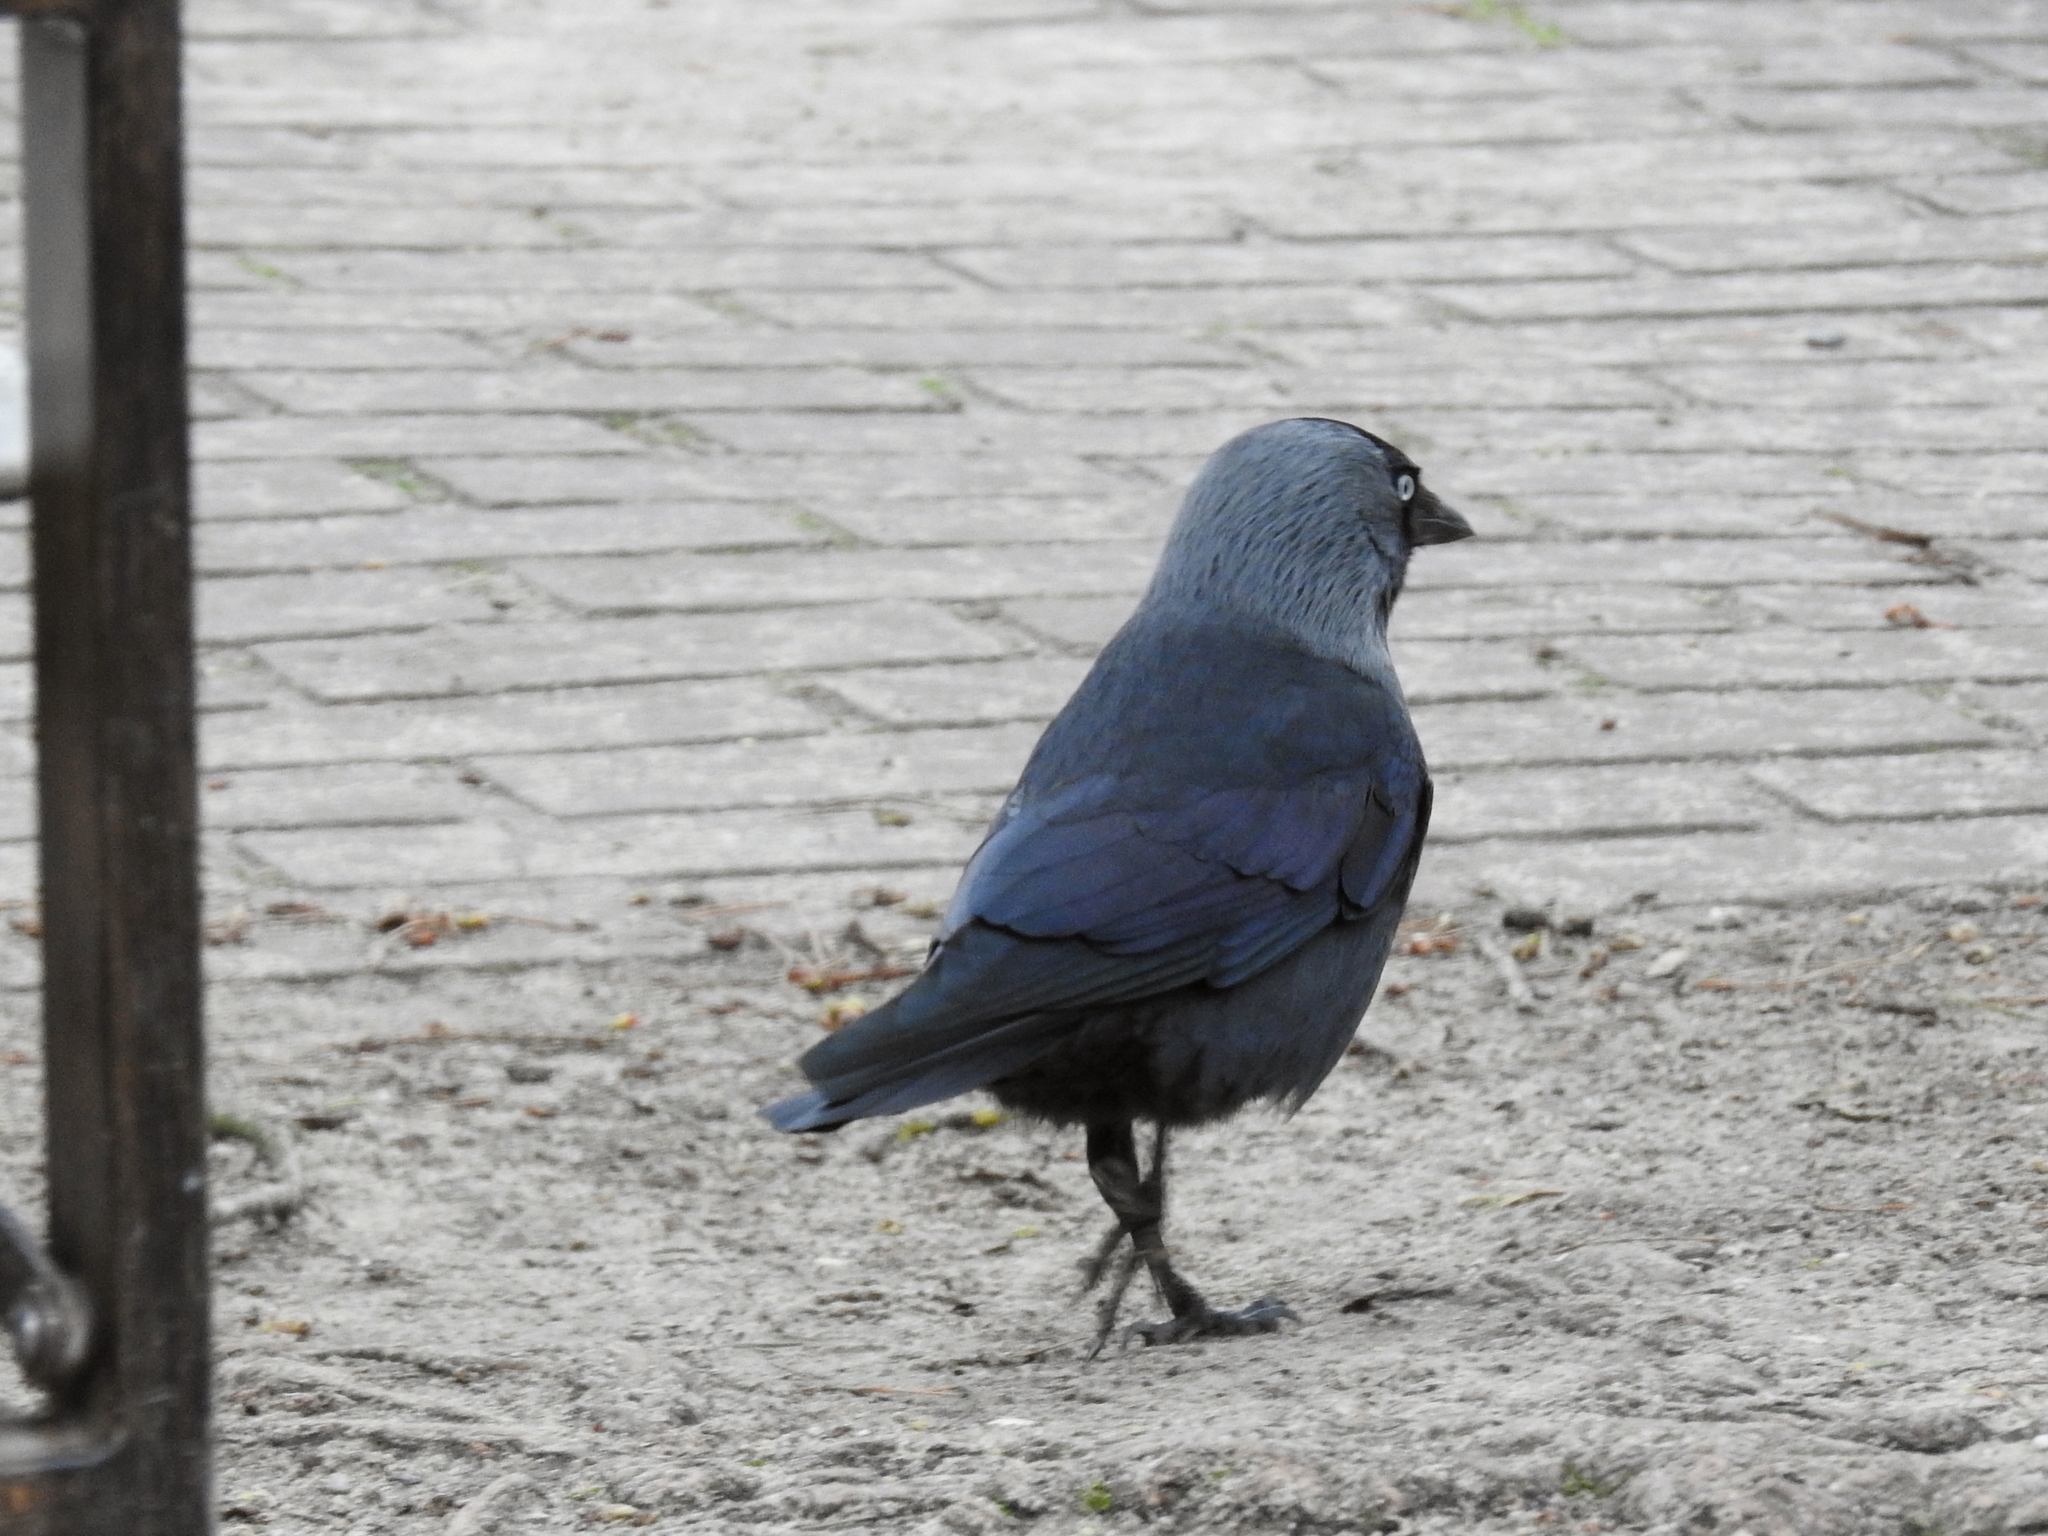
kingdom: Animalia
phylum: Chordata
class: Aves
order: Passeriformes
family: Corvidae
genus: Coloeus
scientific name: Coloeus monedula
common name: Western jackdaw
